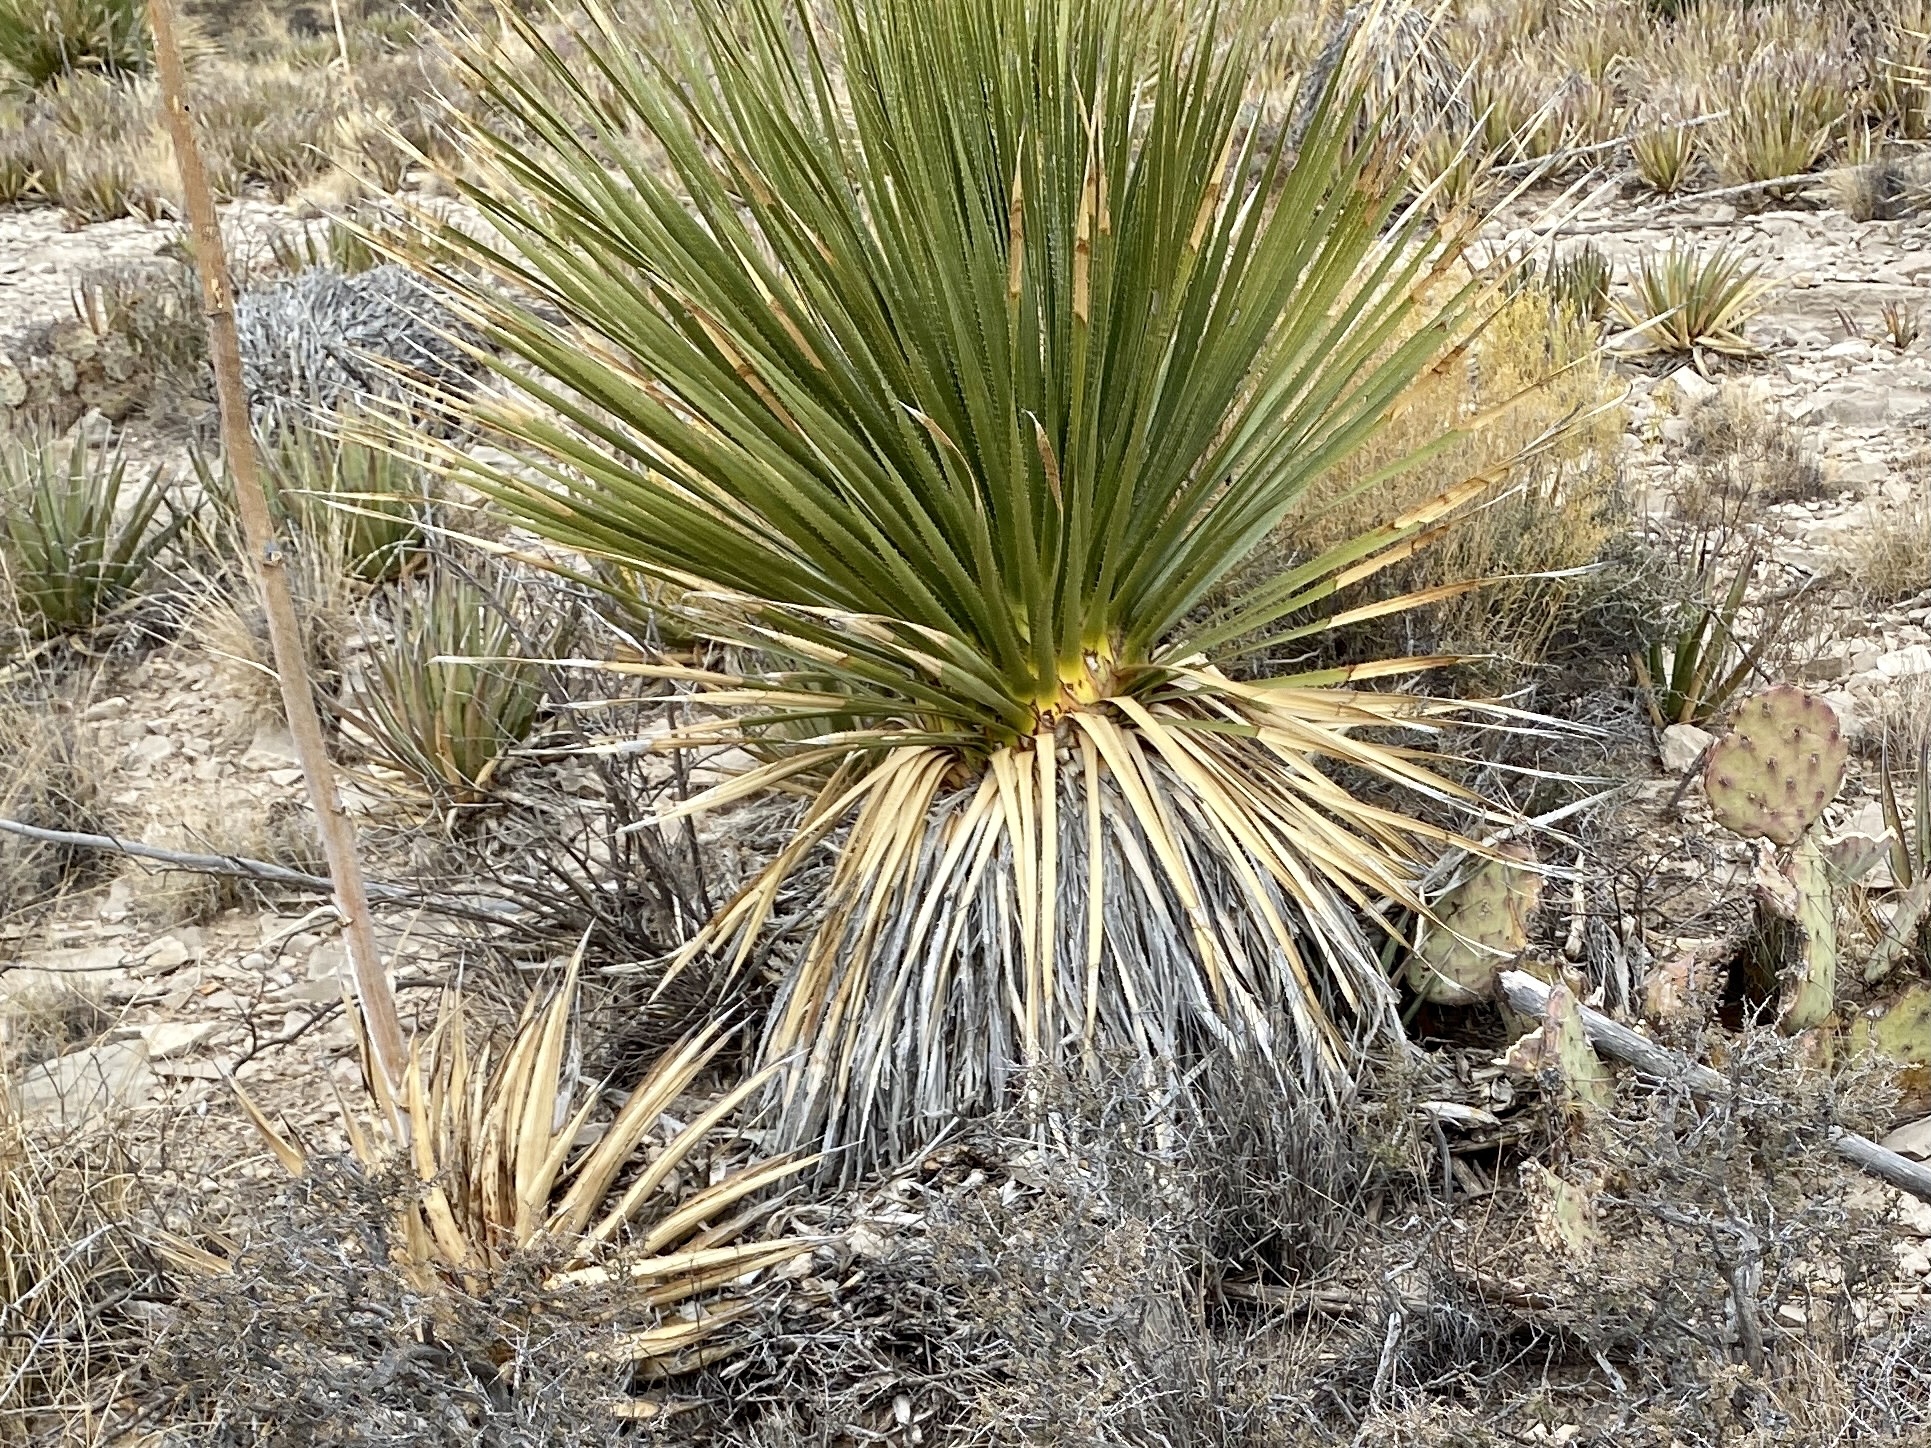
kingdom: Plantae
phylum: Tracheophyta
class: Liliopsida
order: Asparagales
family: Asparagaceae
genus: Dasylirion
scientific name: Dasylirion wheeleri
